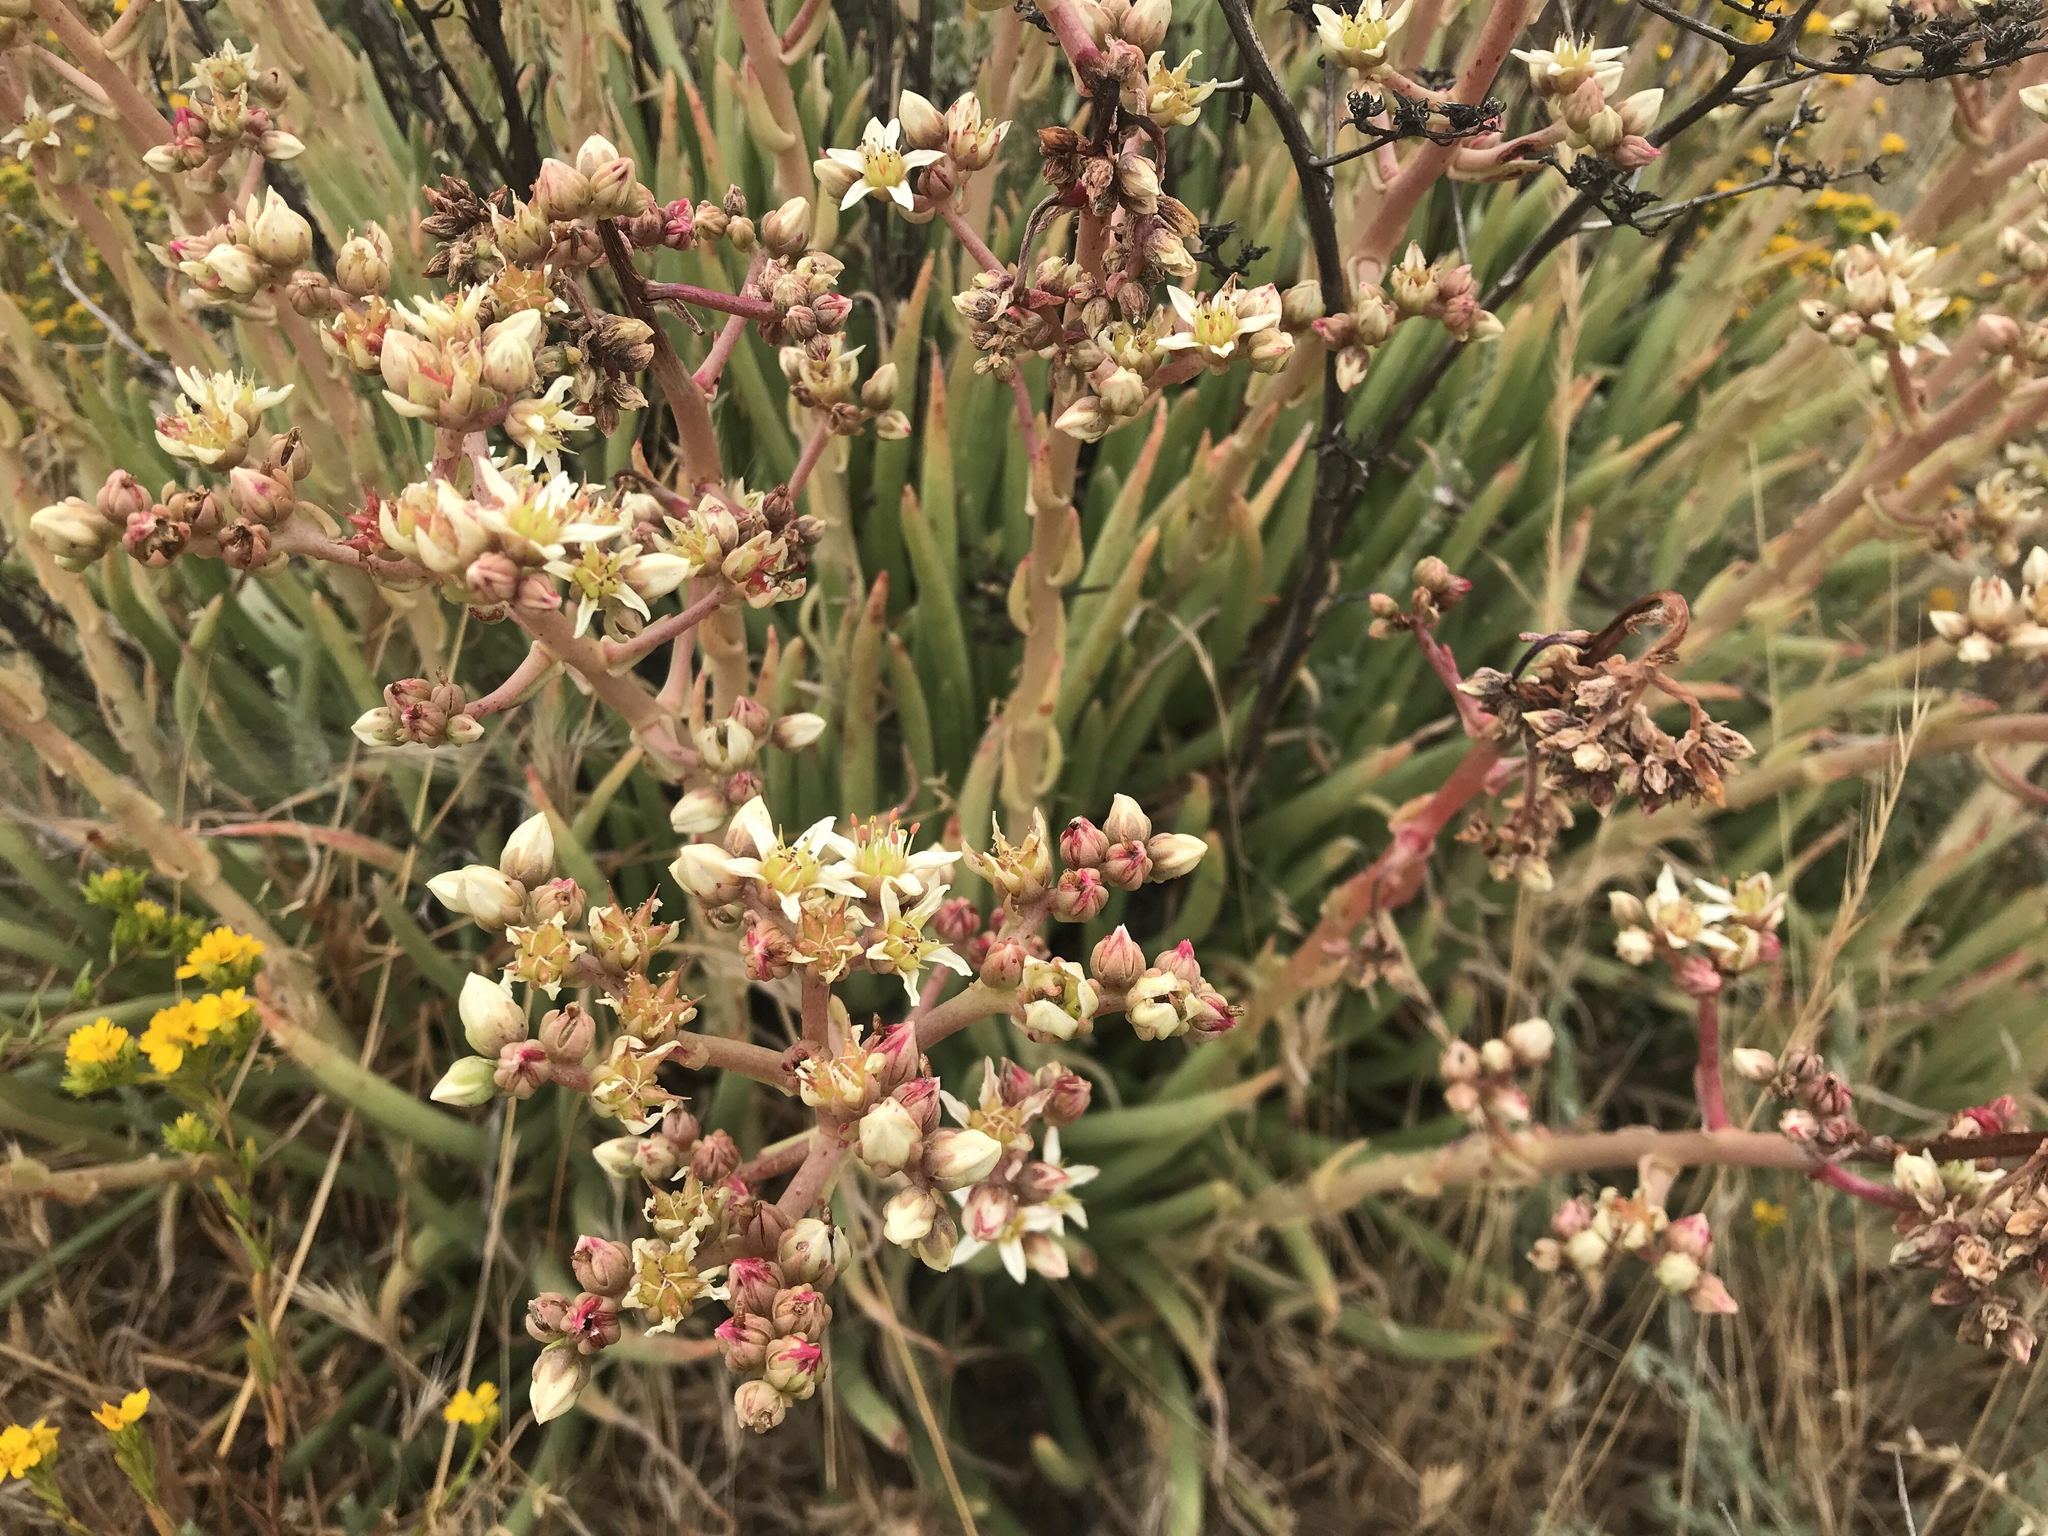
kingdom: Plantae
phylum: Tracheophyta
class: Magnoliopsida
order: Saxifragales
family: Crassulaceae
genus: Dudleya
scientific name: Dudleya edulis
